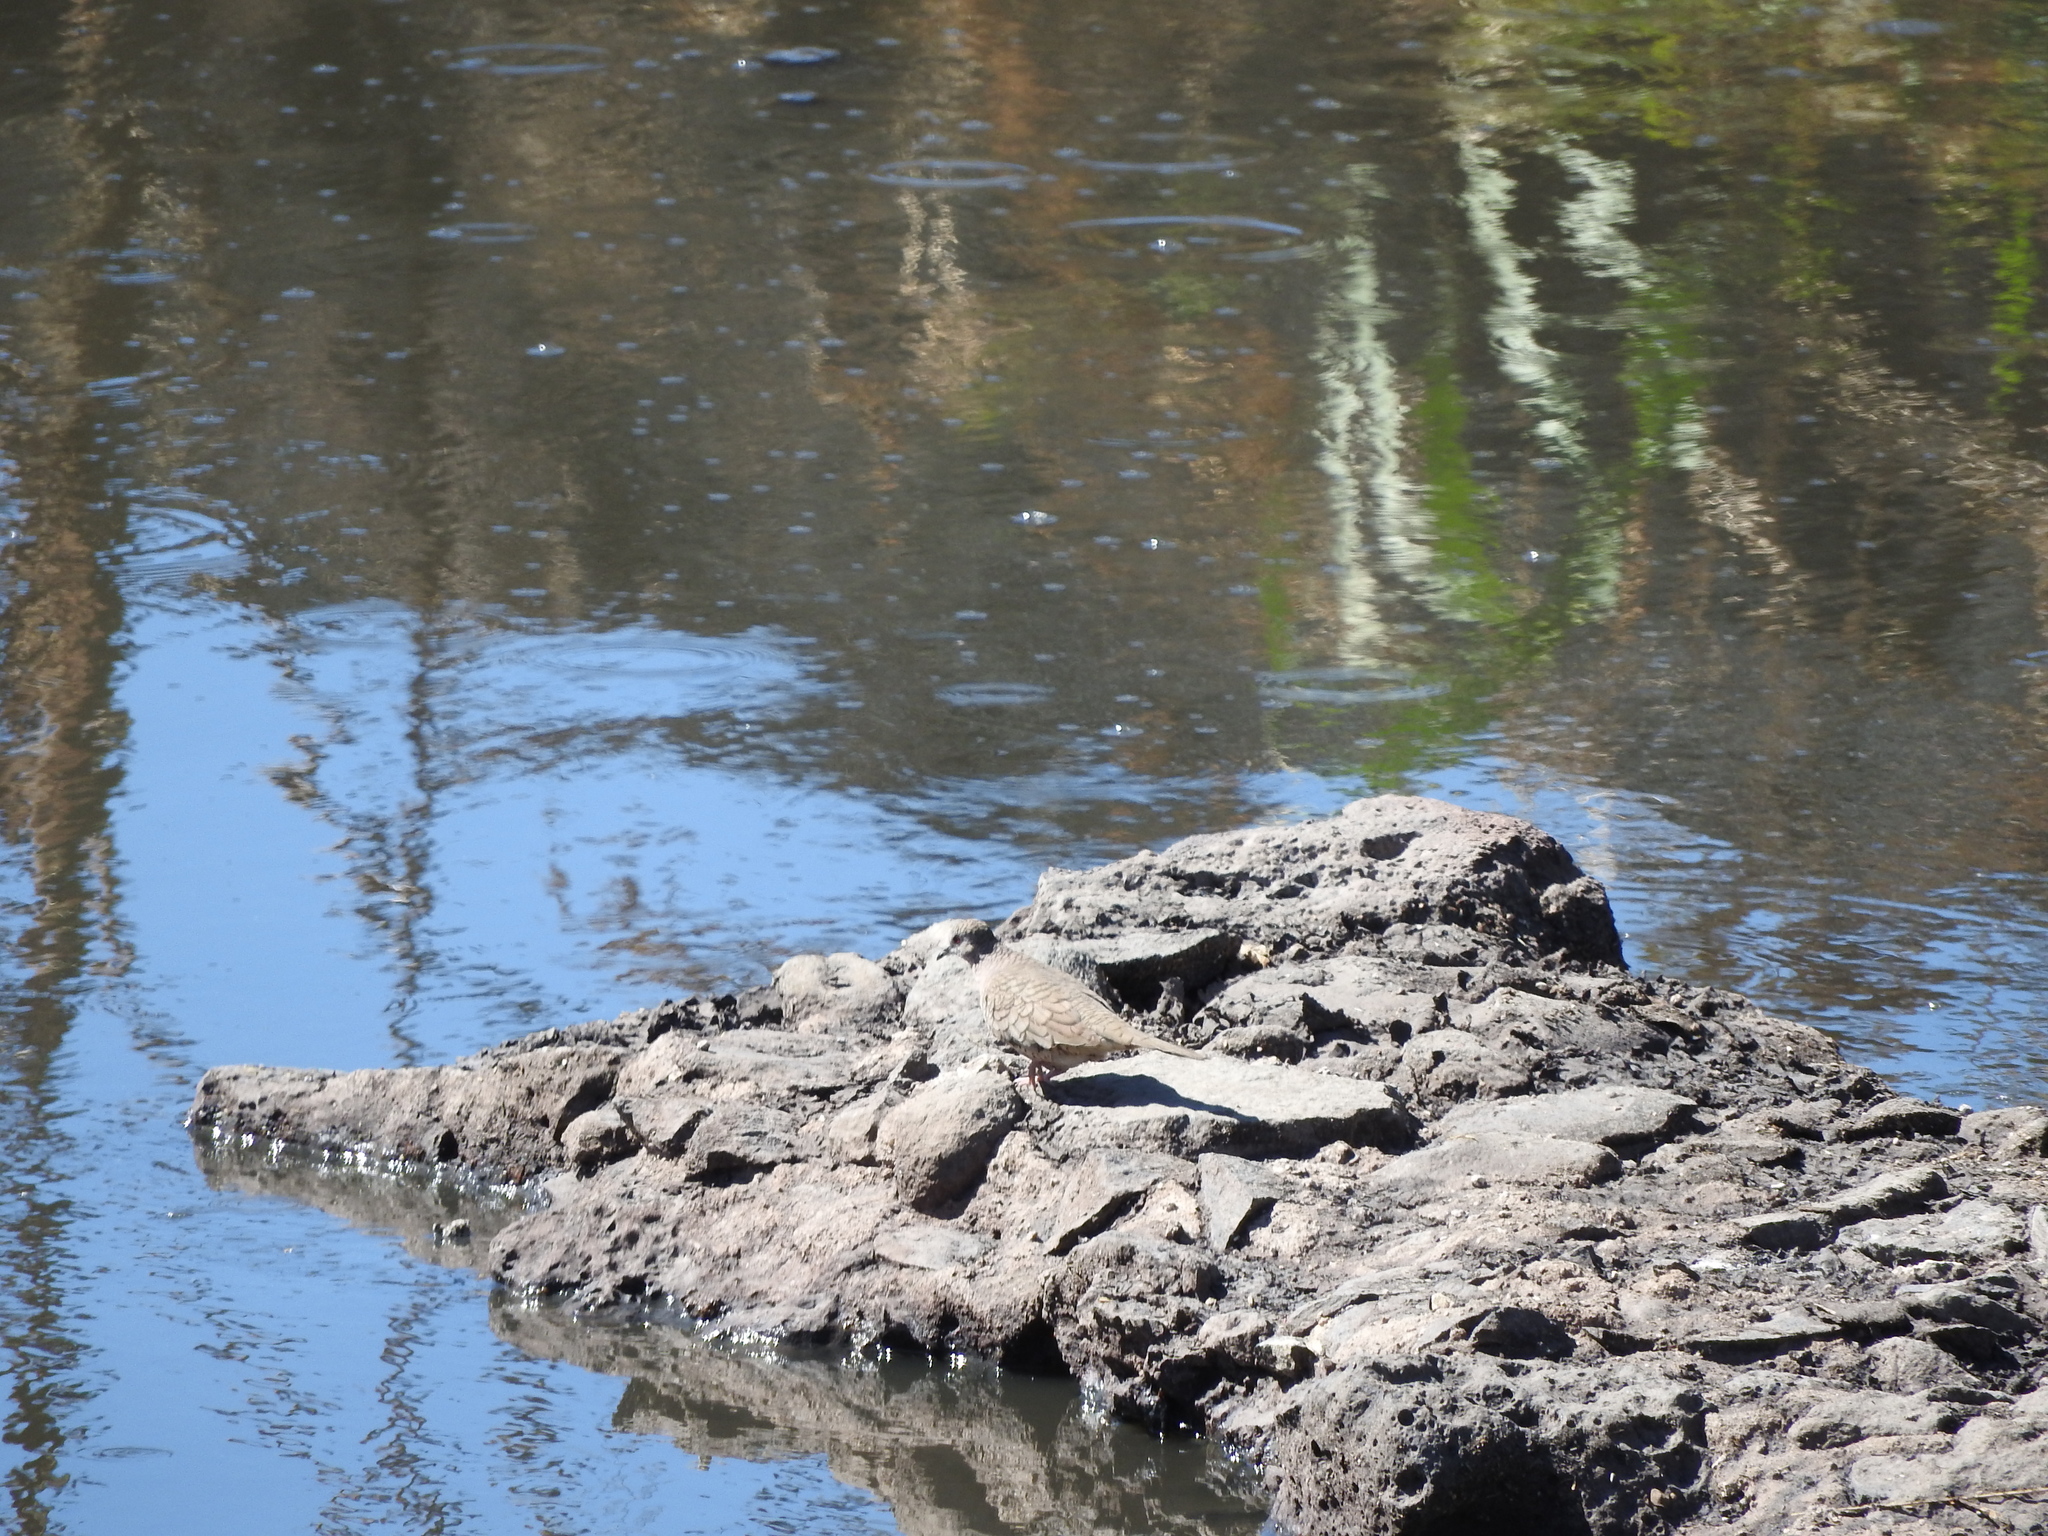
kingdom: Animalia
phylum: Chordata
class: Aves
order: Columbiformes
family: Columbidae
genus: Columbina
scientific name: Columbina inca
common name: Inca dove
